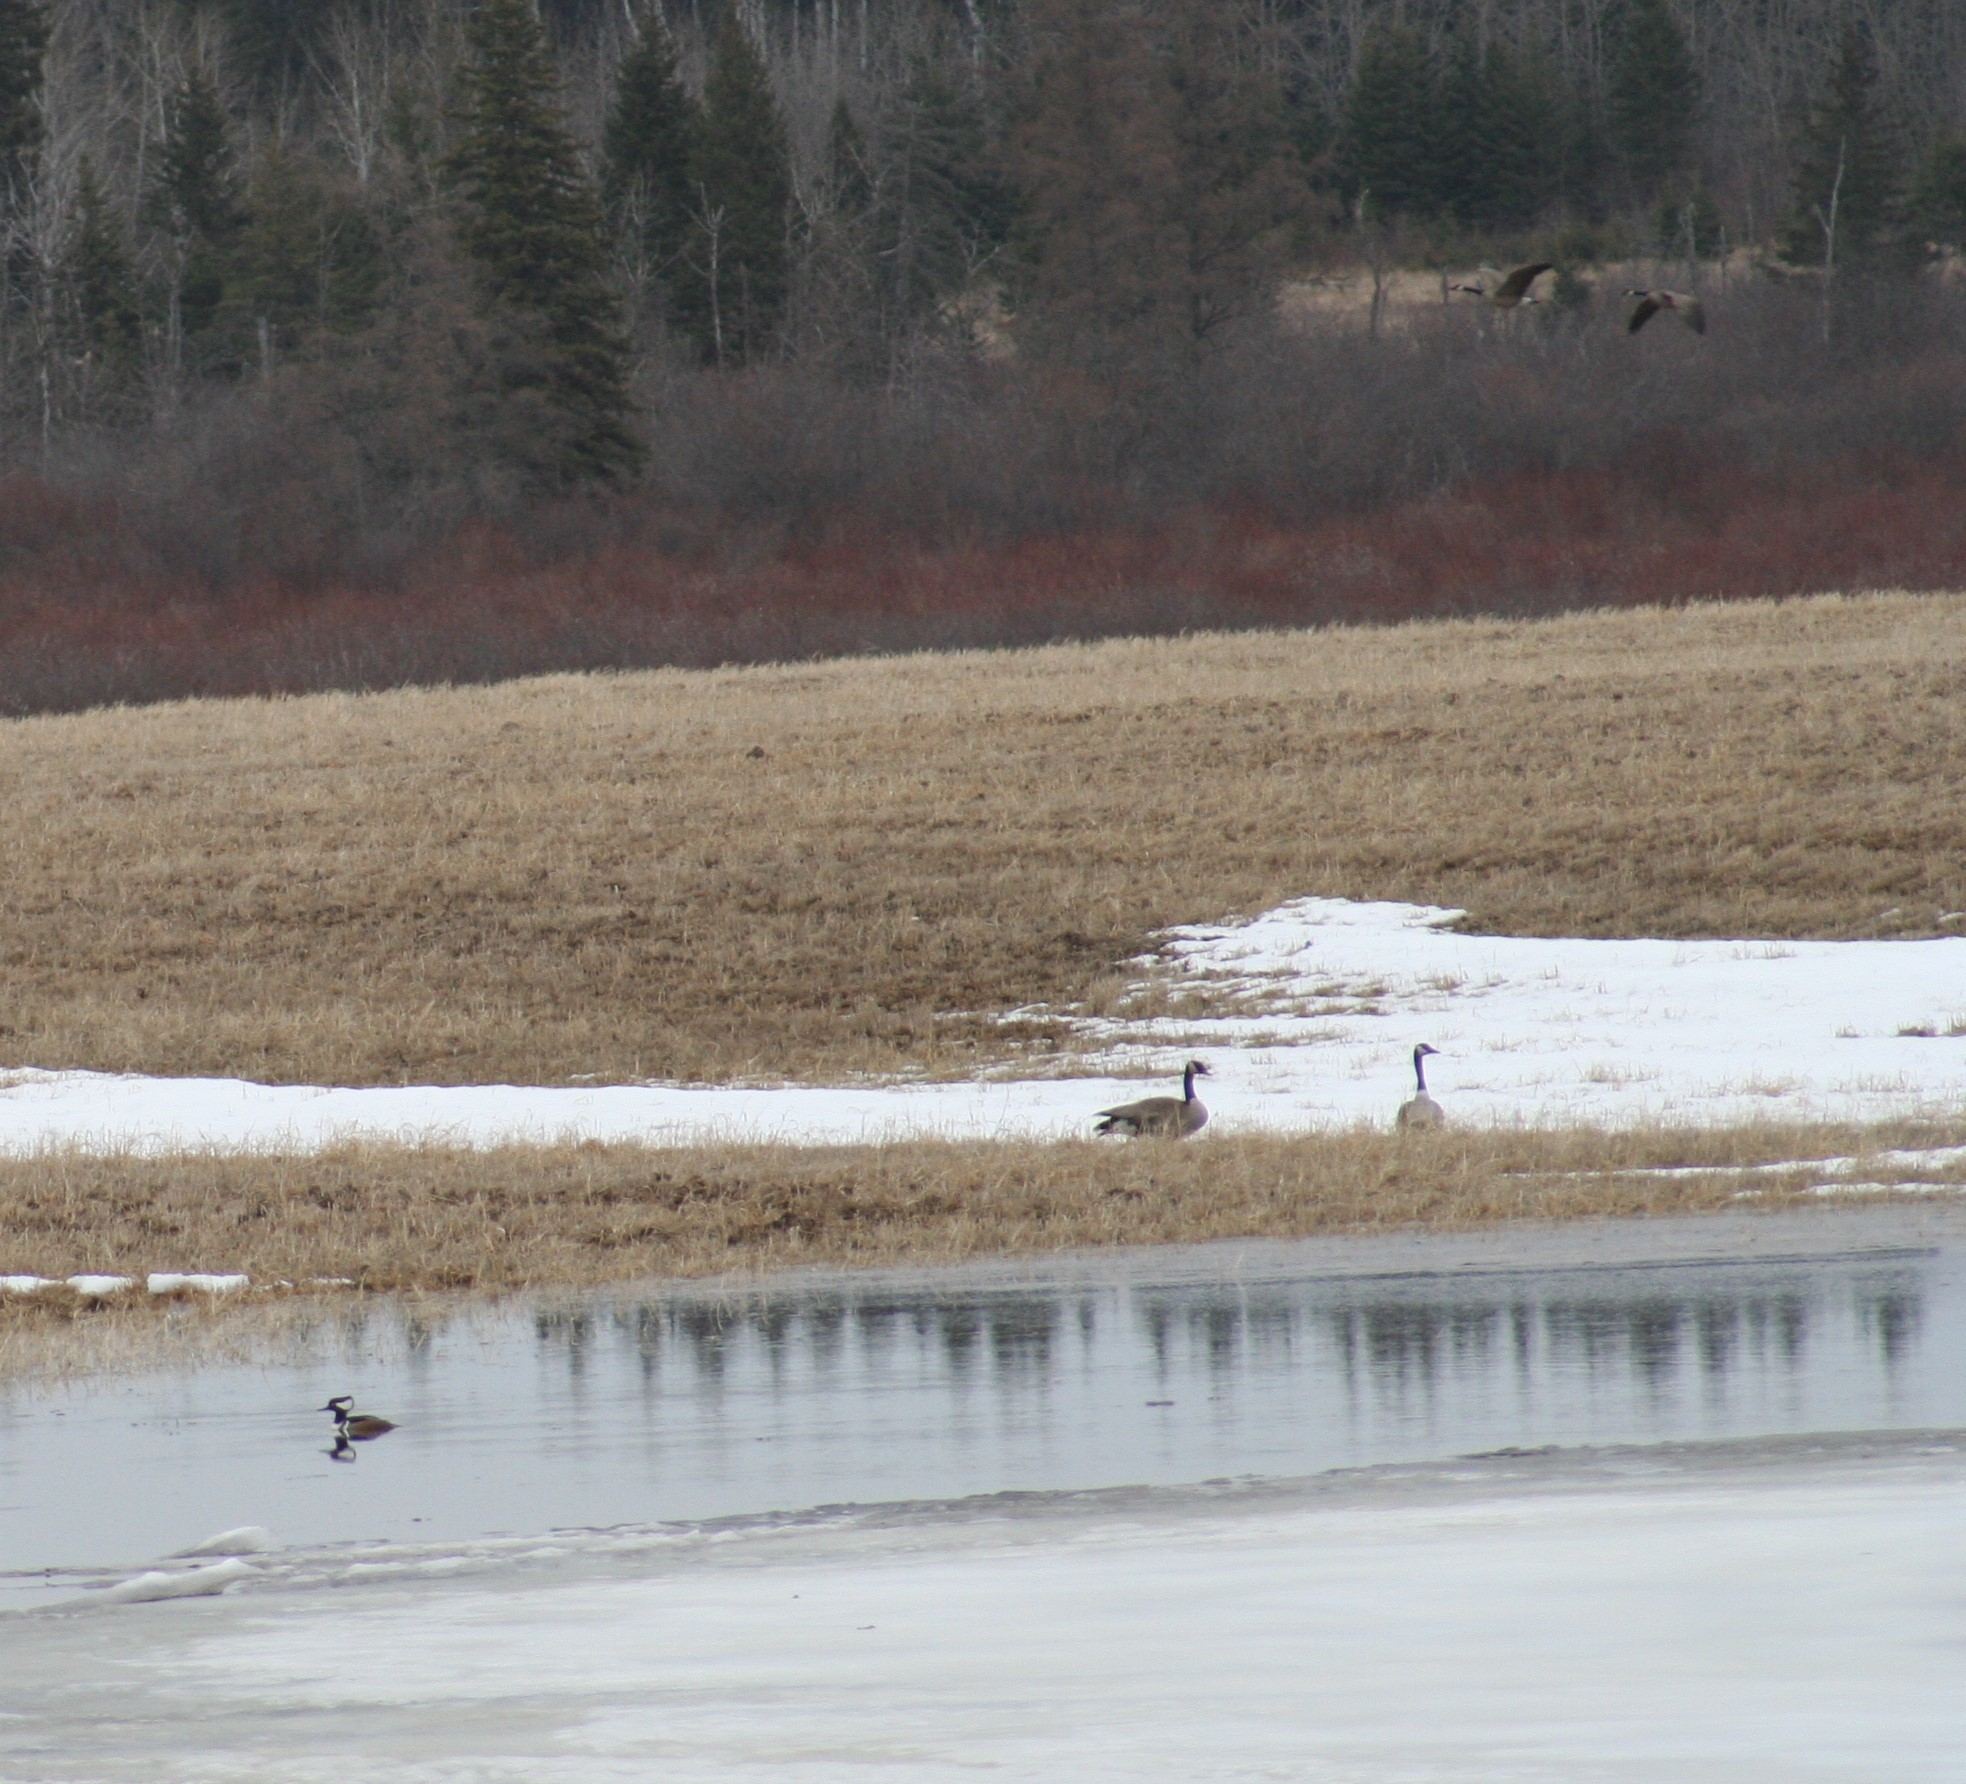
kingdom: Animalia
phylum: Chordata
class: Aves
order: Anseriformes
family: Anatidae
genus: Lophodytes
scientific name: Lophodytes cucullatus
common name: Hooded merganser
